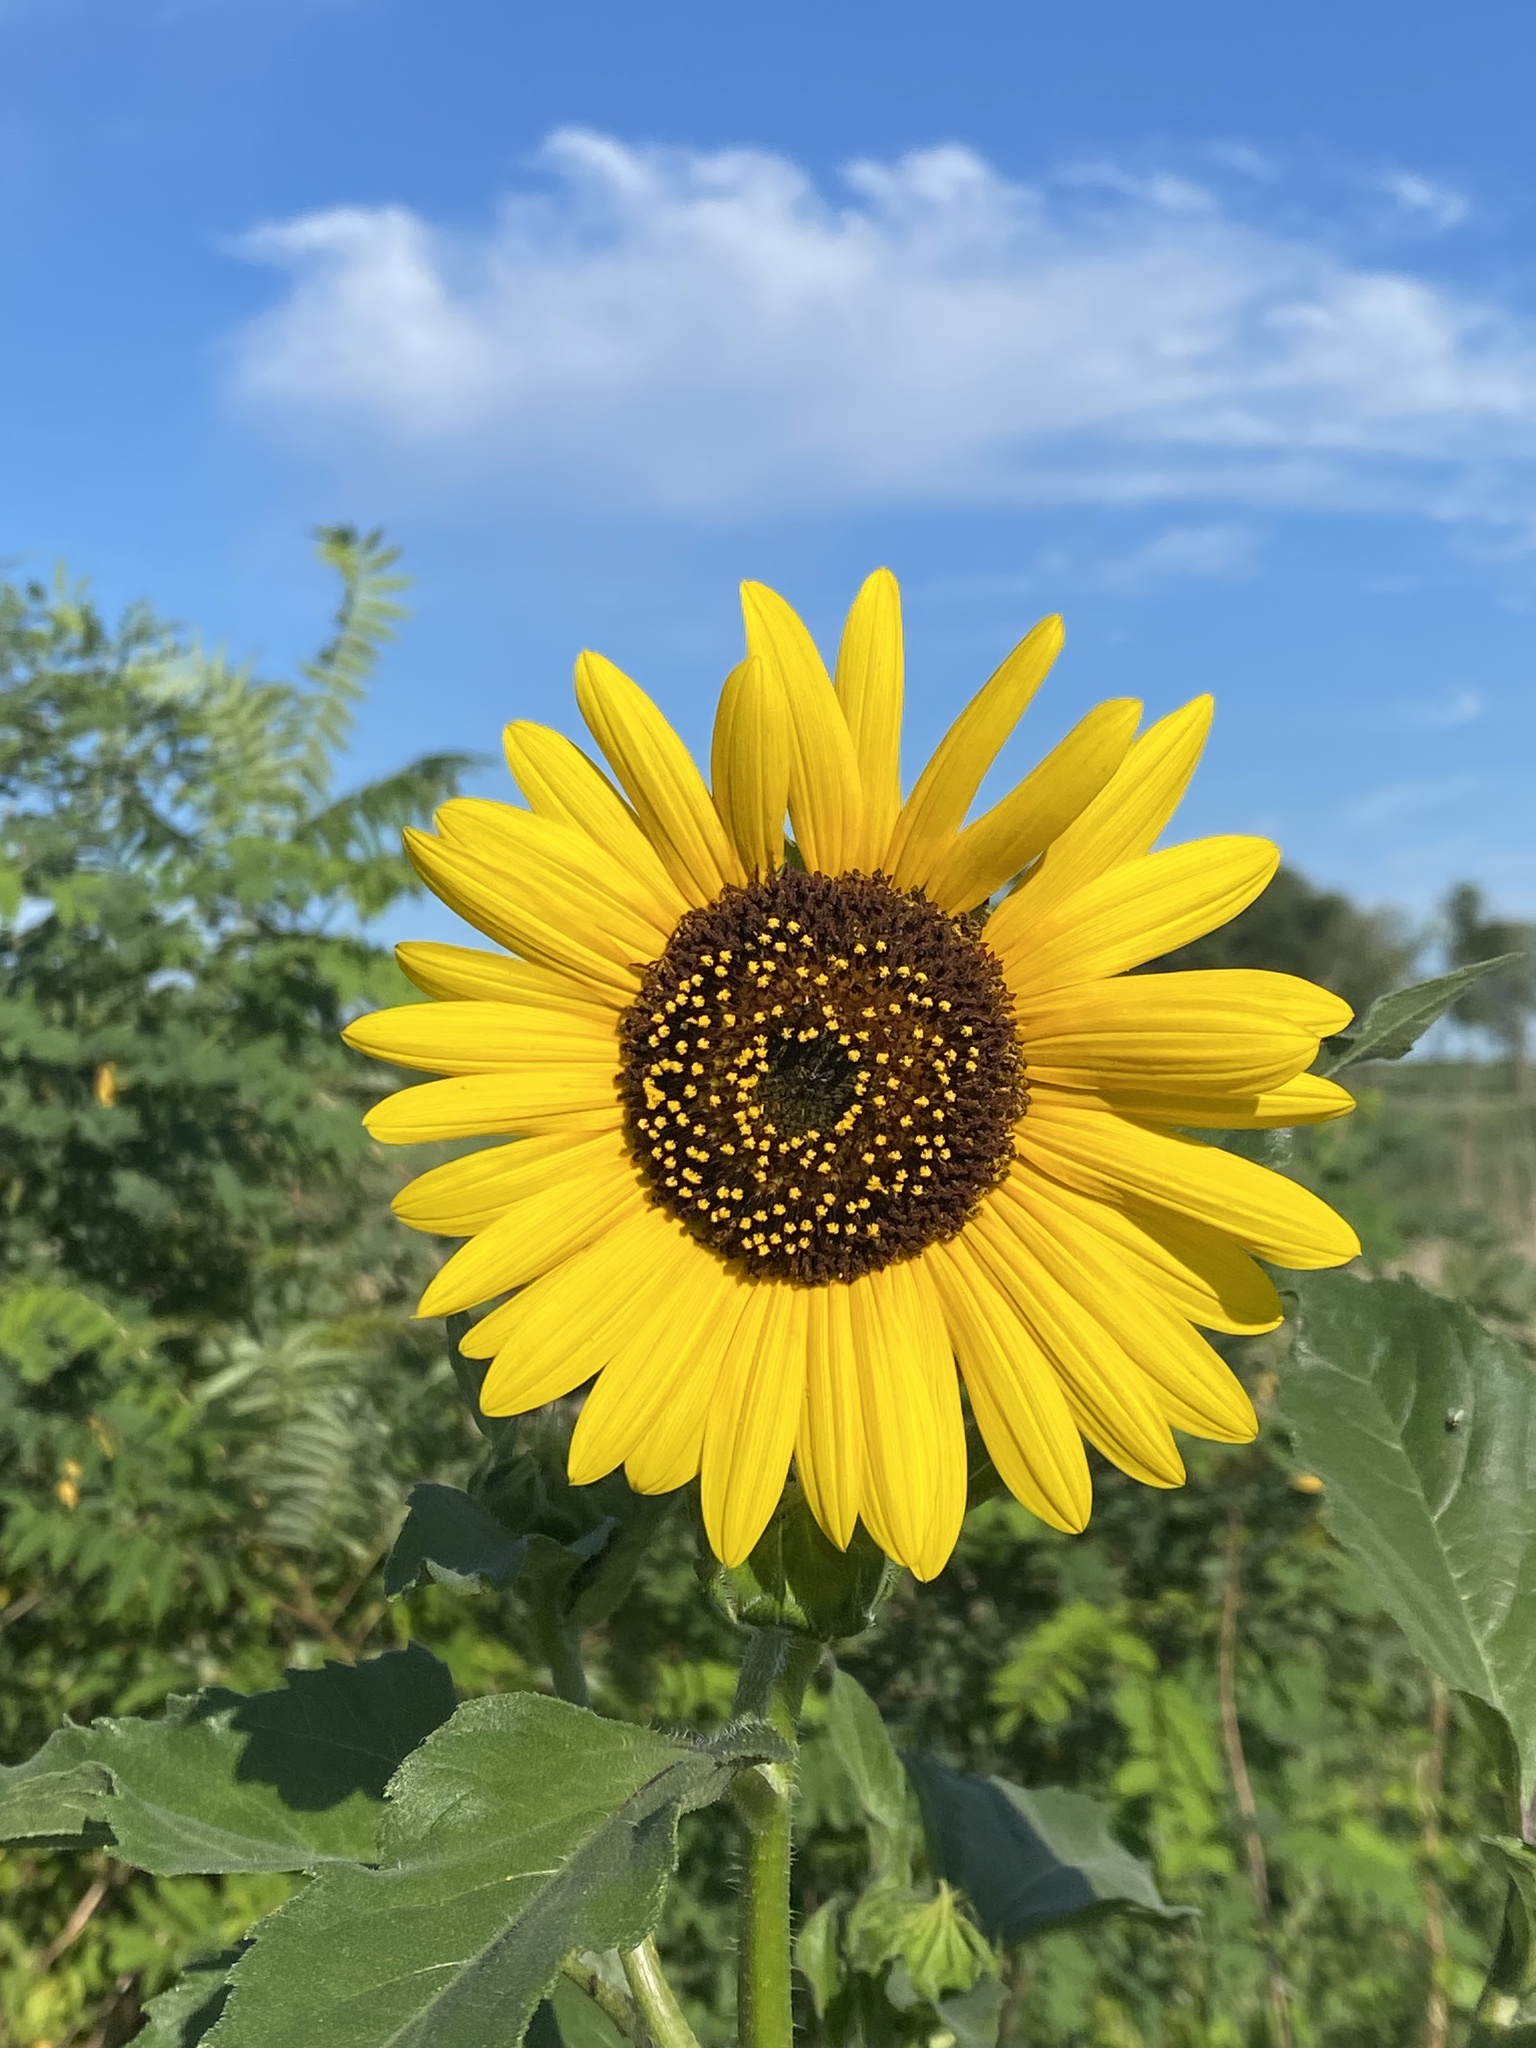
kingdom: Plantae
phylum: Tracheophyta
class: Magnoliopsida
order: Asterales
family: Asteraceae
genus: Helianthus
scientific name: Helianthus annuus
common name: Sunflower
